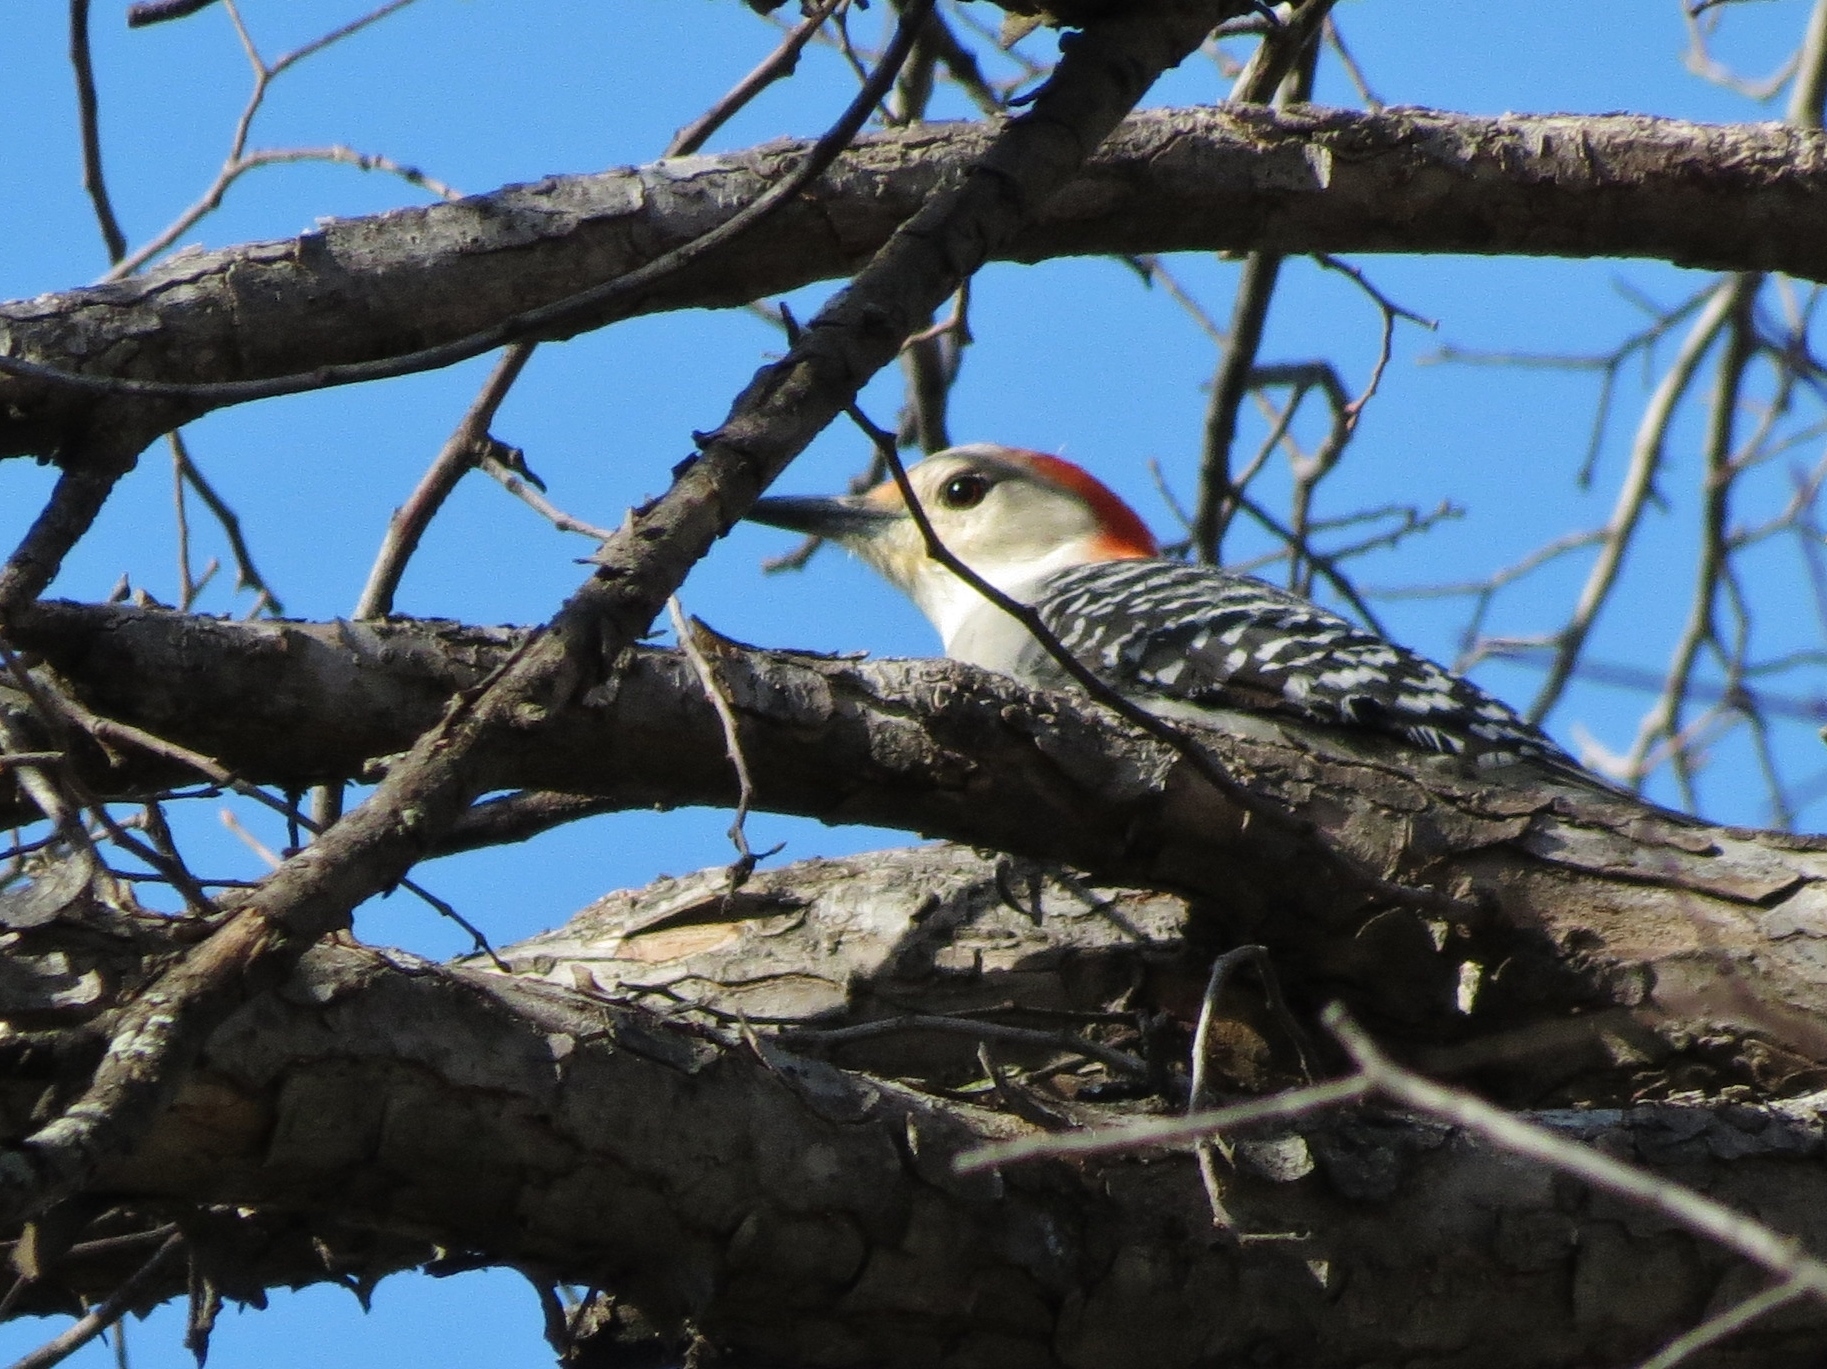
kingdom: Animalia
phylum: Chordata
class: Aves
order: Piciformes
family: Picidae
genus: Melanerpes
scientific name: Melanerpes carolinus
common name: Red-bellied woodpecker
